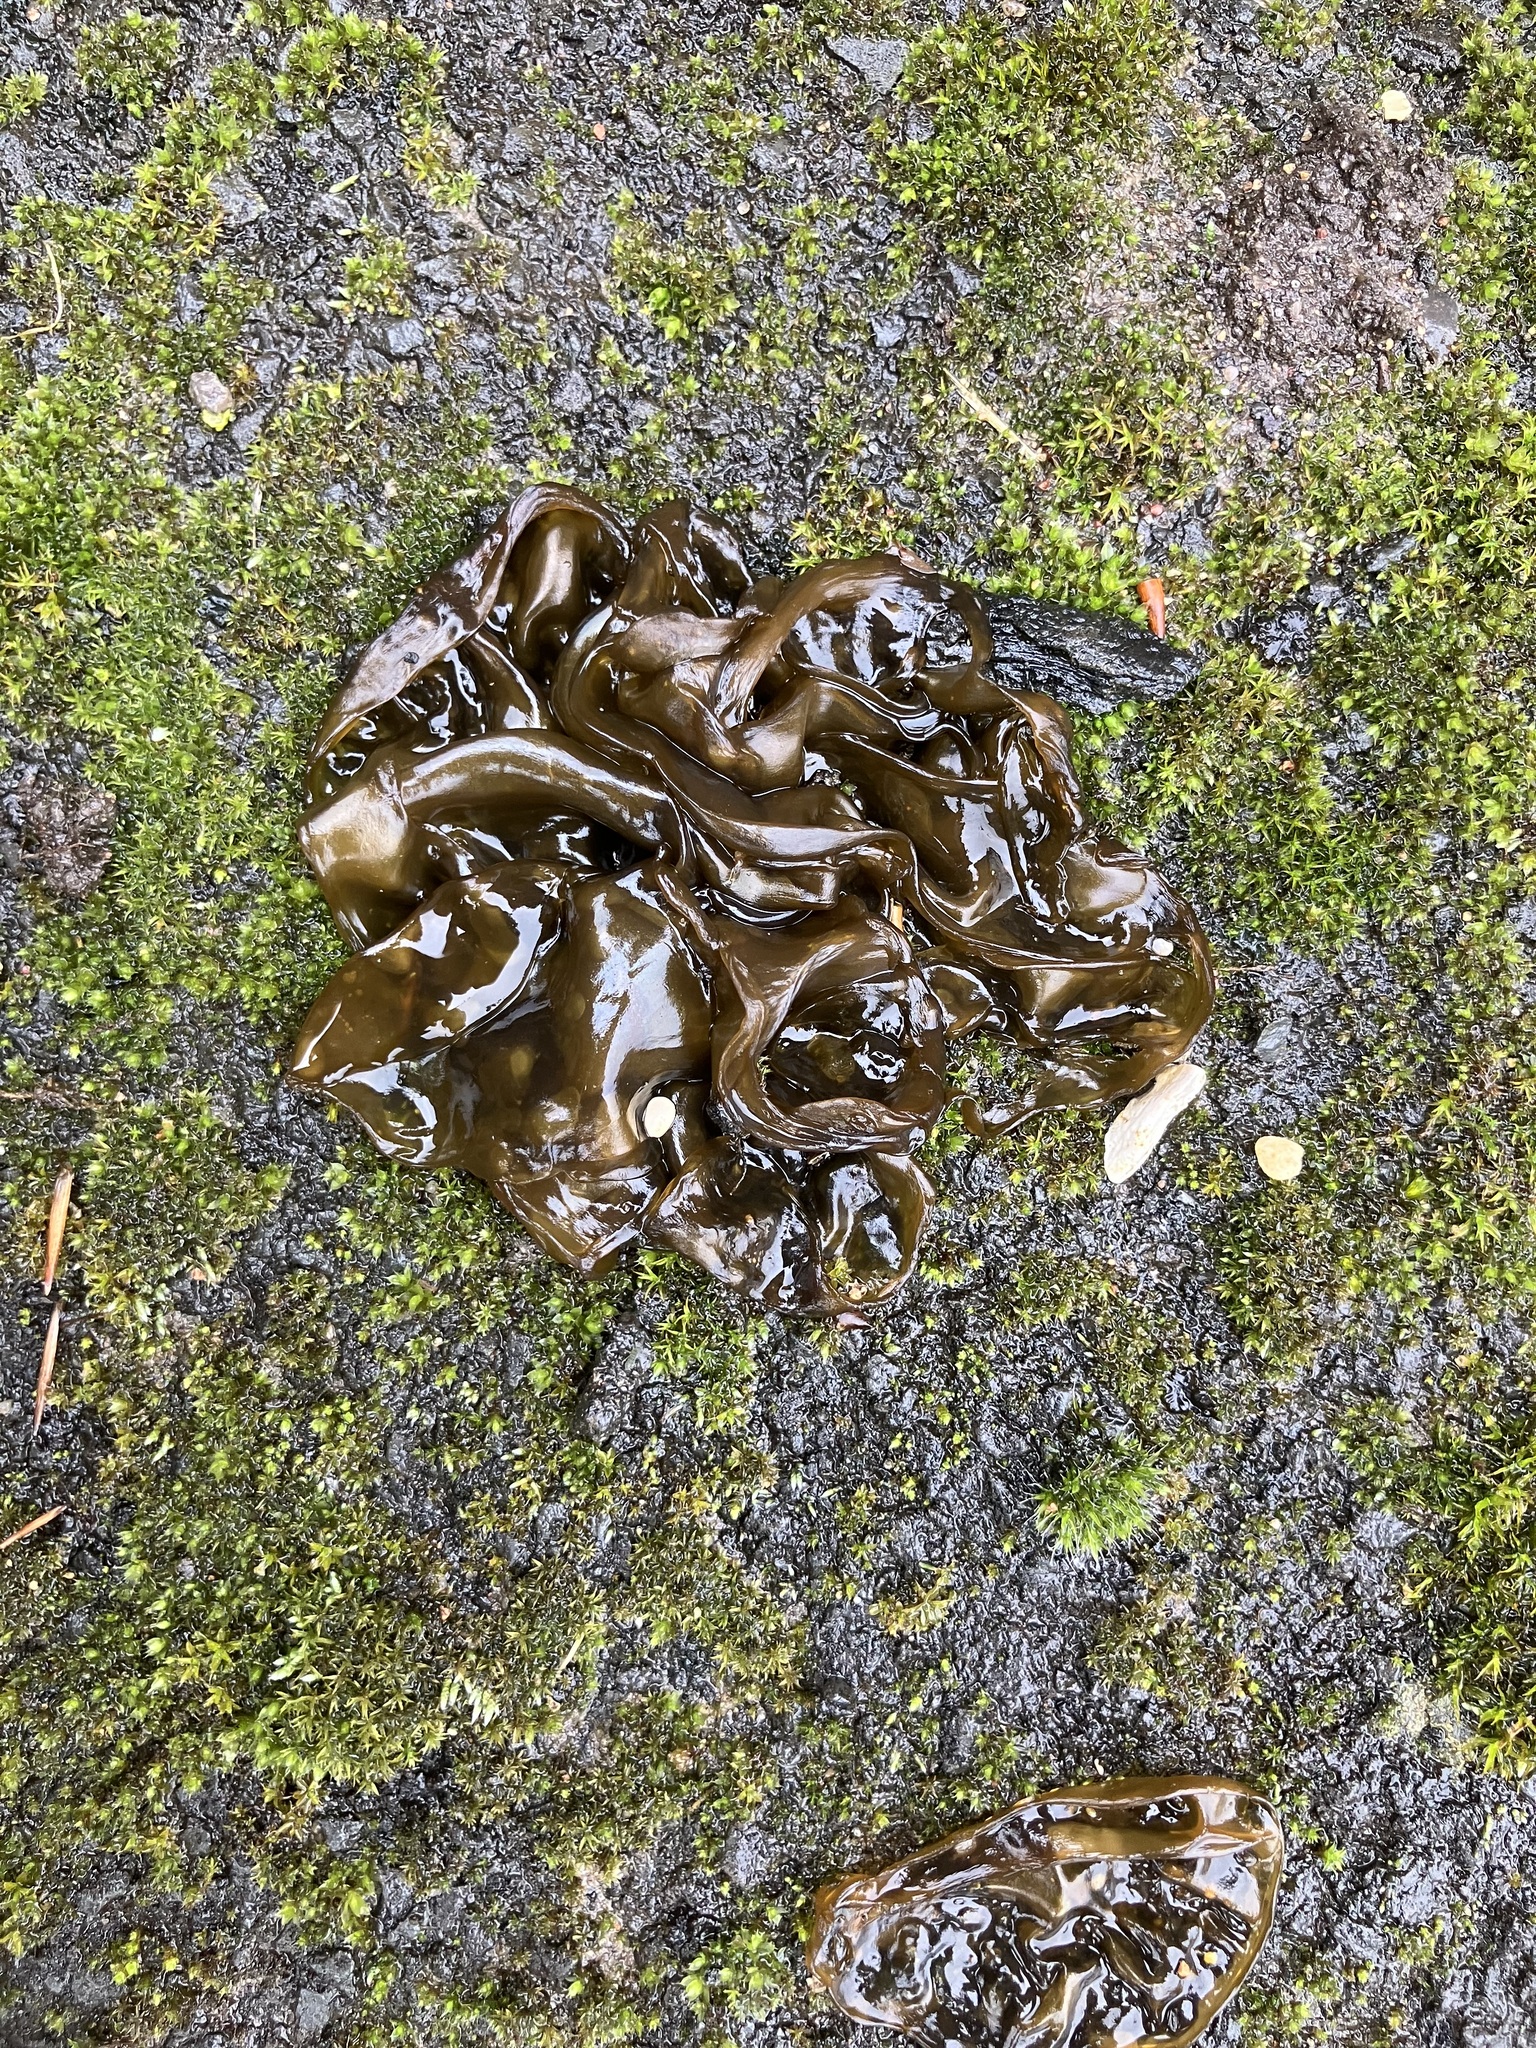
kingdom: Bacteria
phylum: Cyanobacteria
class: Cyanobacteriia
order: Cyanobacteriales
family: Nostocaceae
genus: Nostoc
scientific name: Nostoc commune
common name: Star jelly
